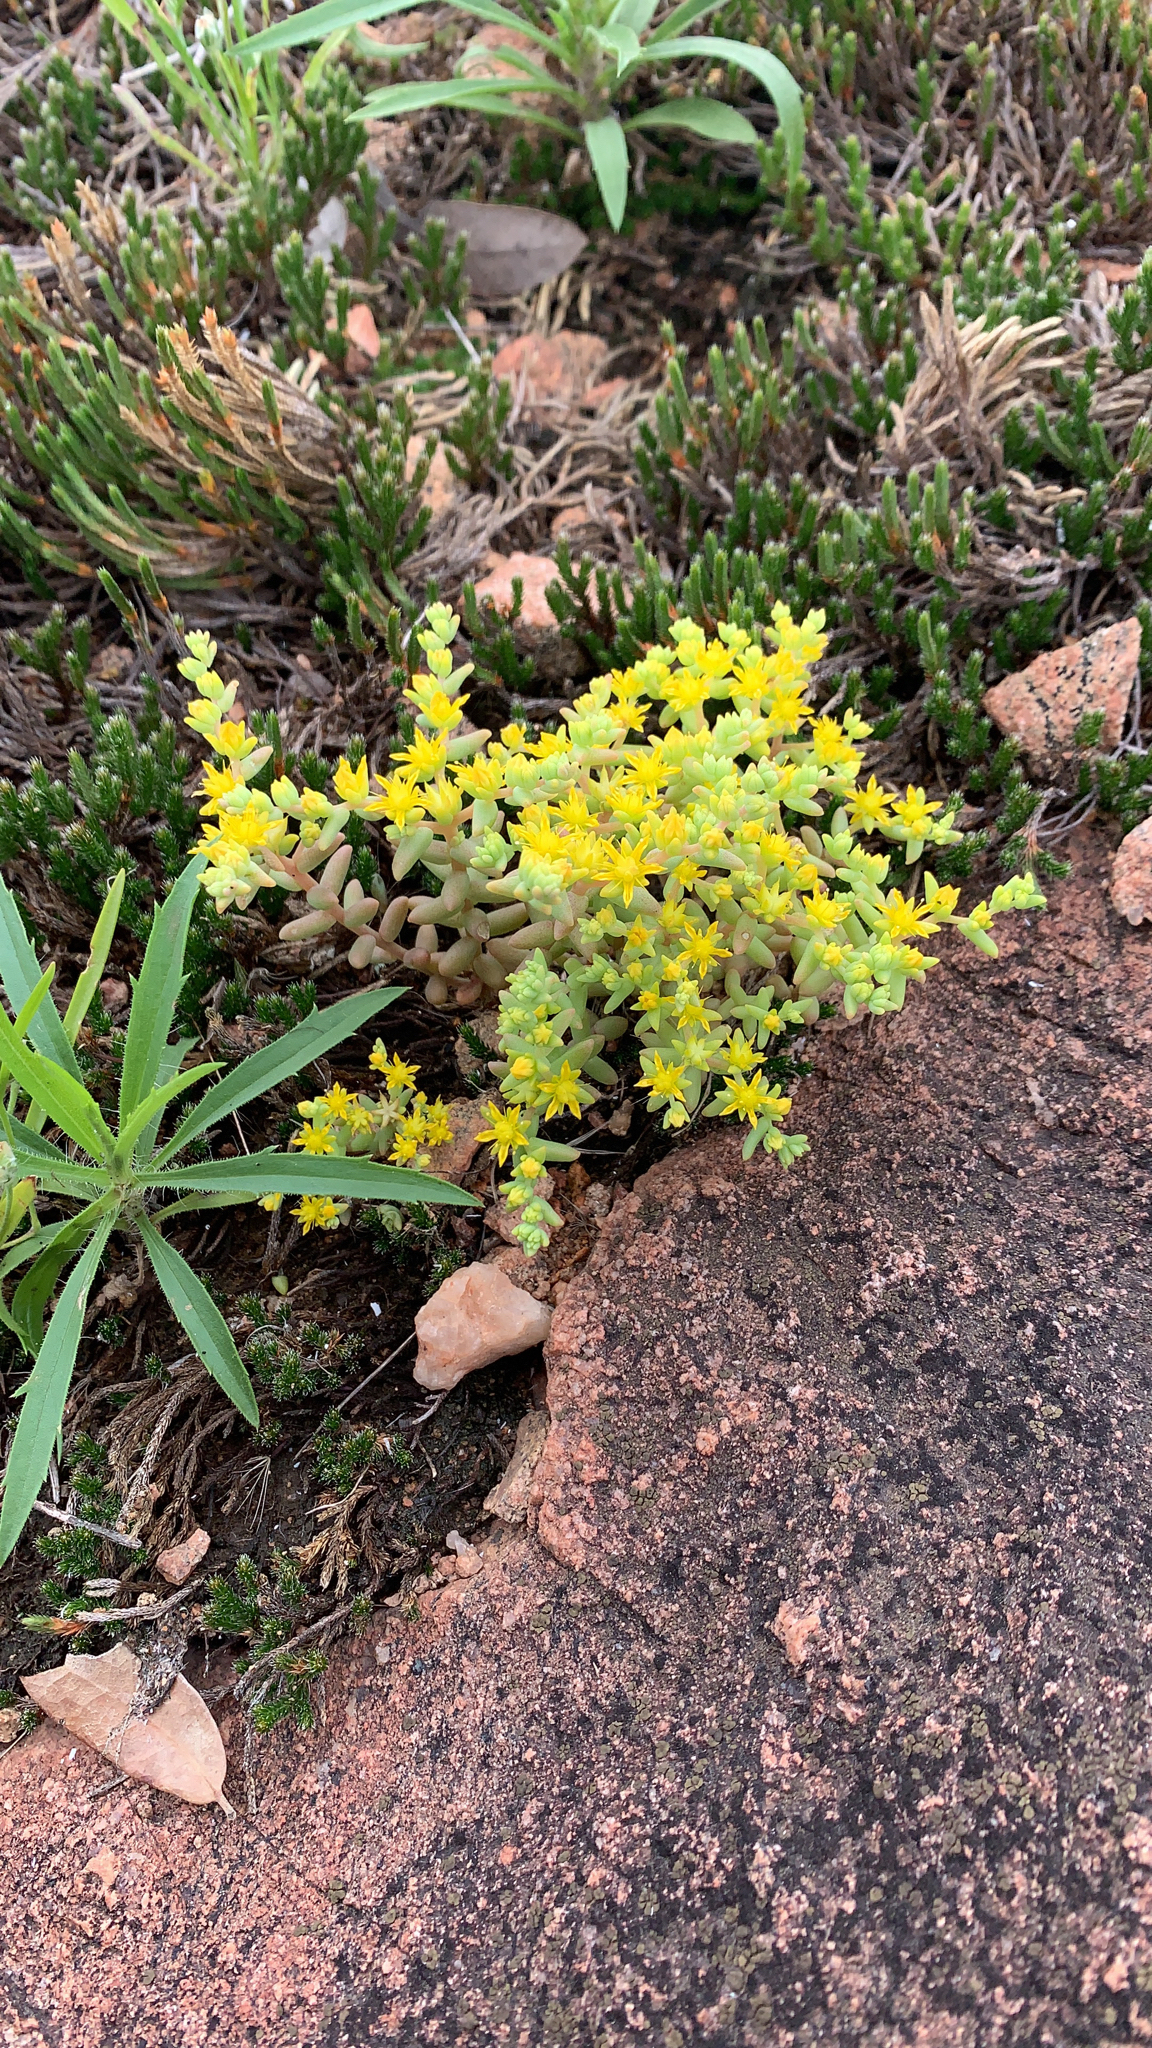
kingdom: Plantae
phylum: Tracheophyta
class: Magnoliopsida
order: Saxifragales
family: Crassulaceae
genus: Sedum
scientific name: Sedum nuttallii
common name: Yellow stonecrop
